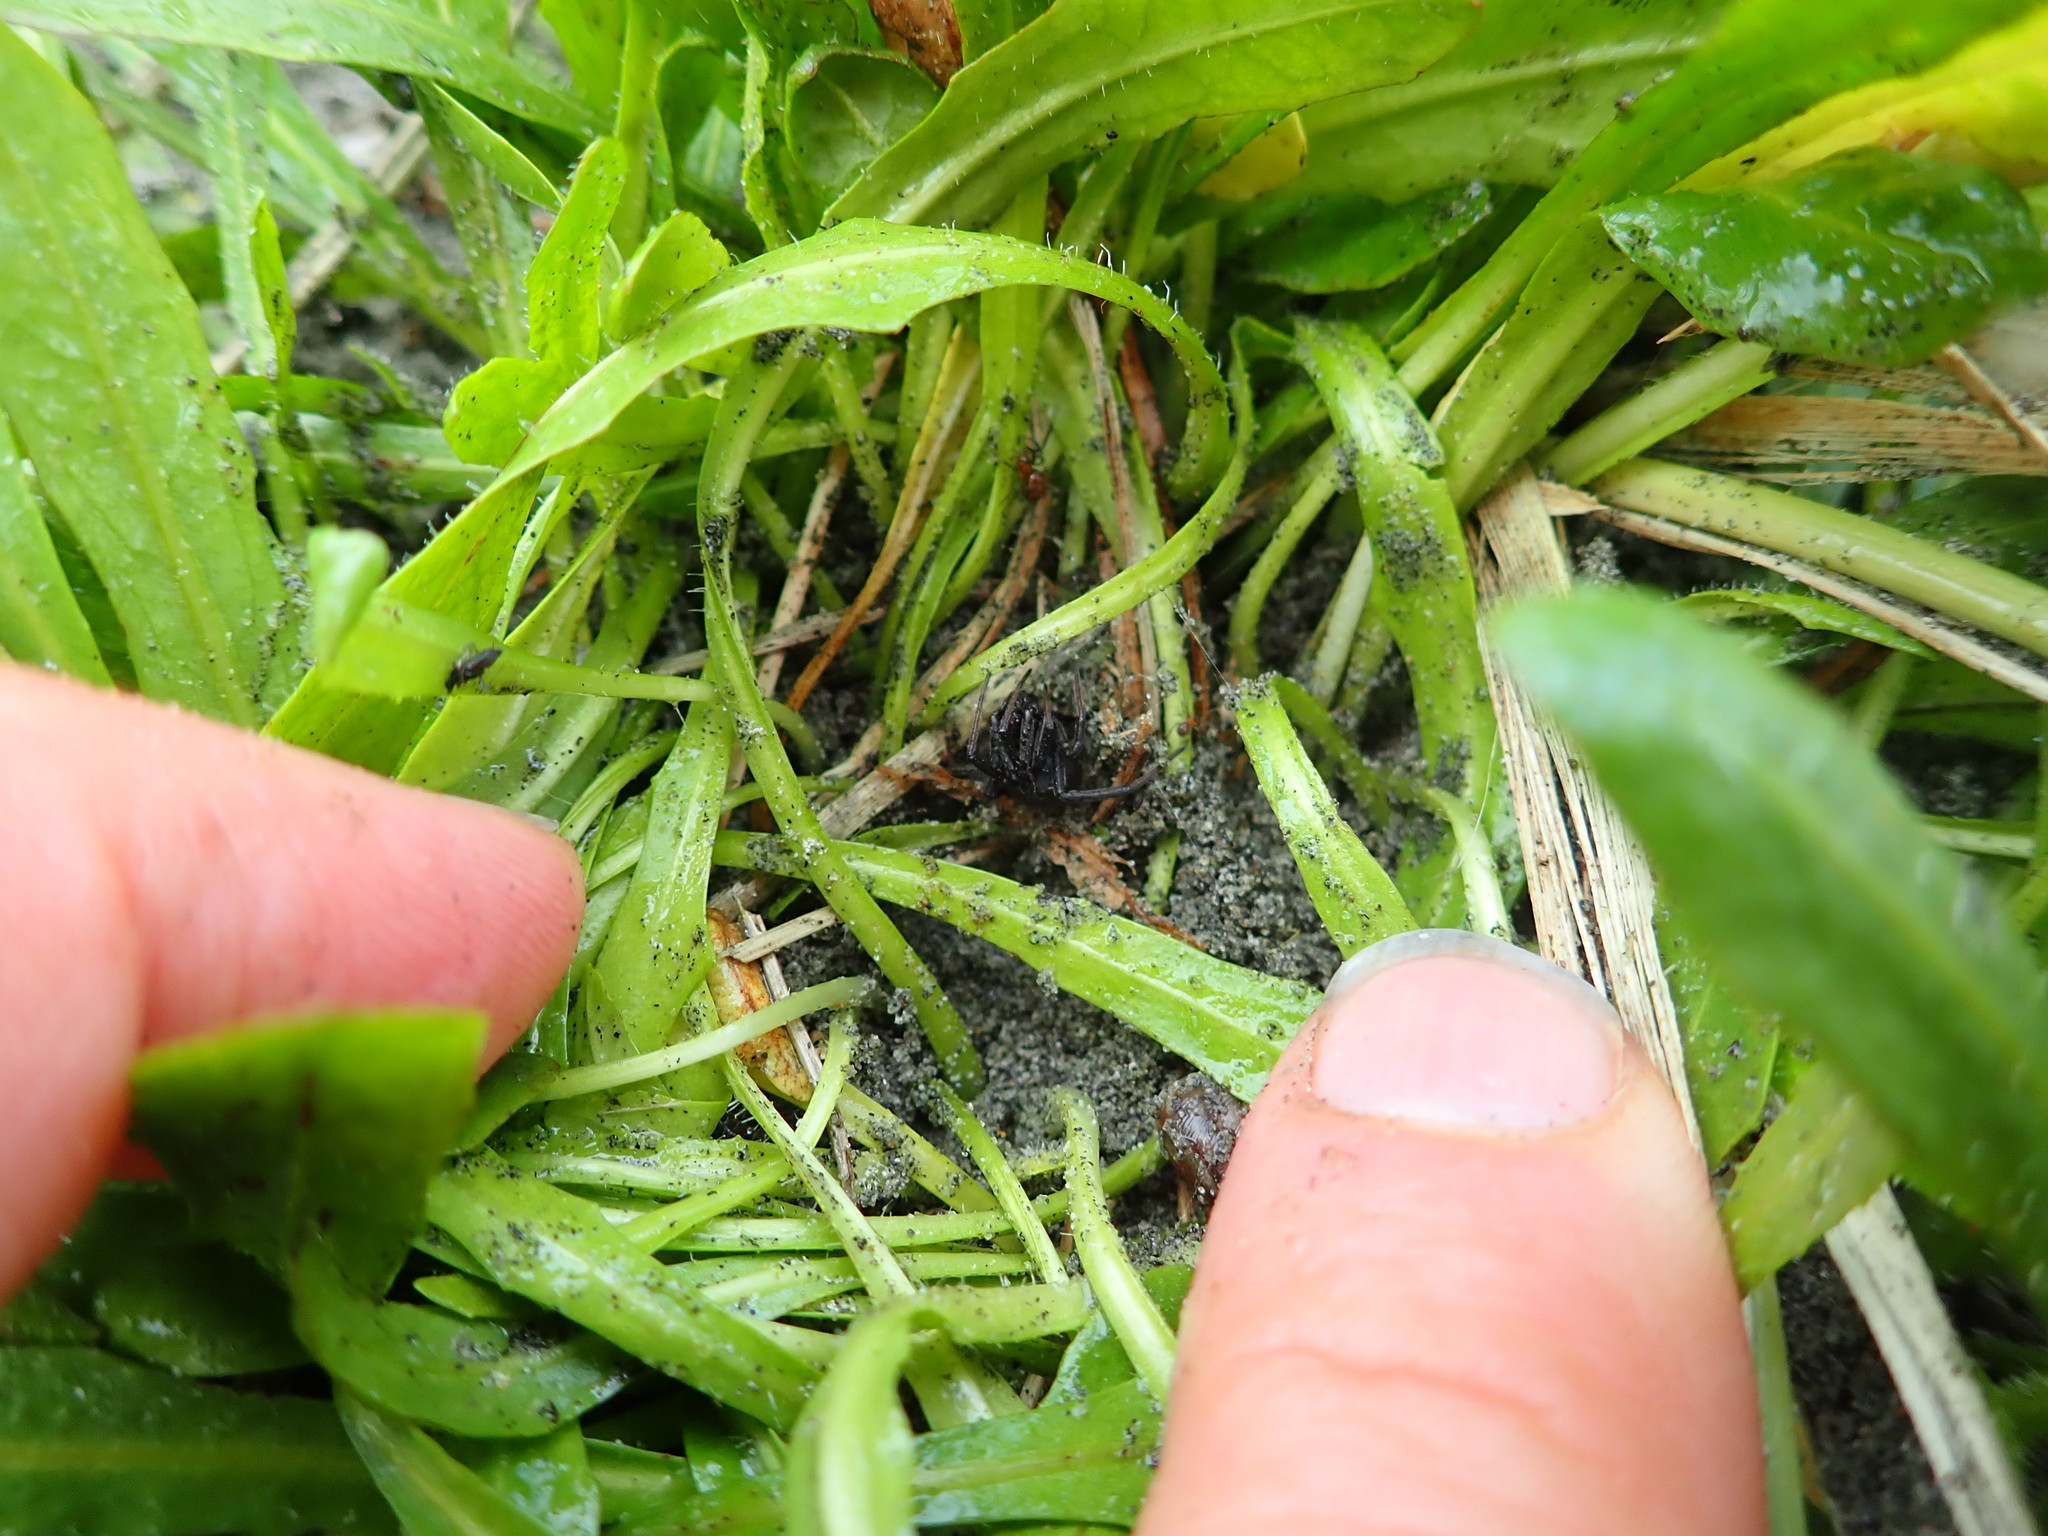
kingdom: Animalia
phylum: Arthropoda
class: Arachnida
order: Araneae
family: Theridiidae
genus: Latrodectus
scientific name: Latrodectus katipo
